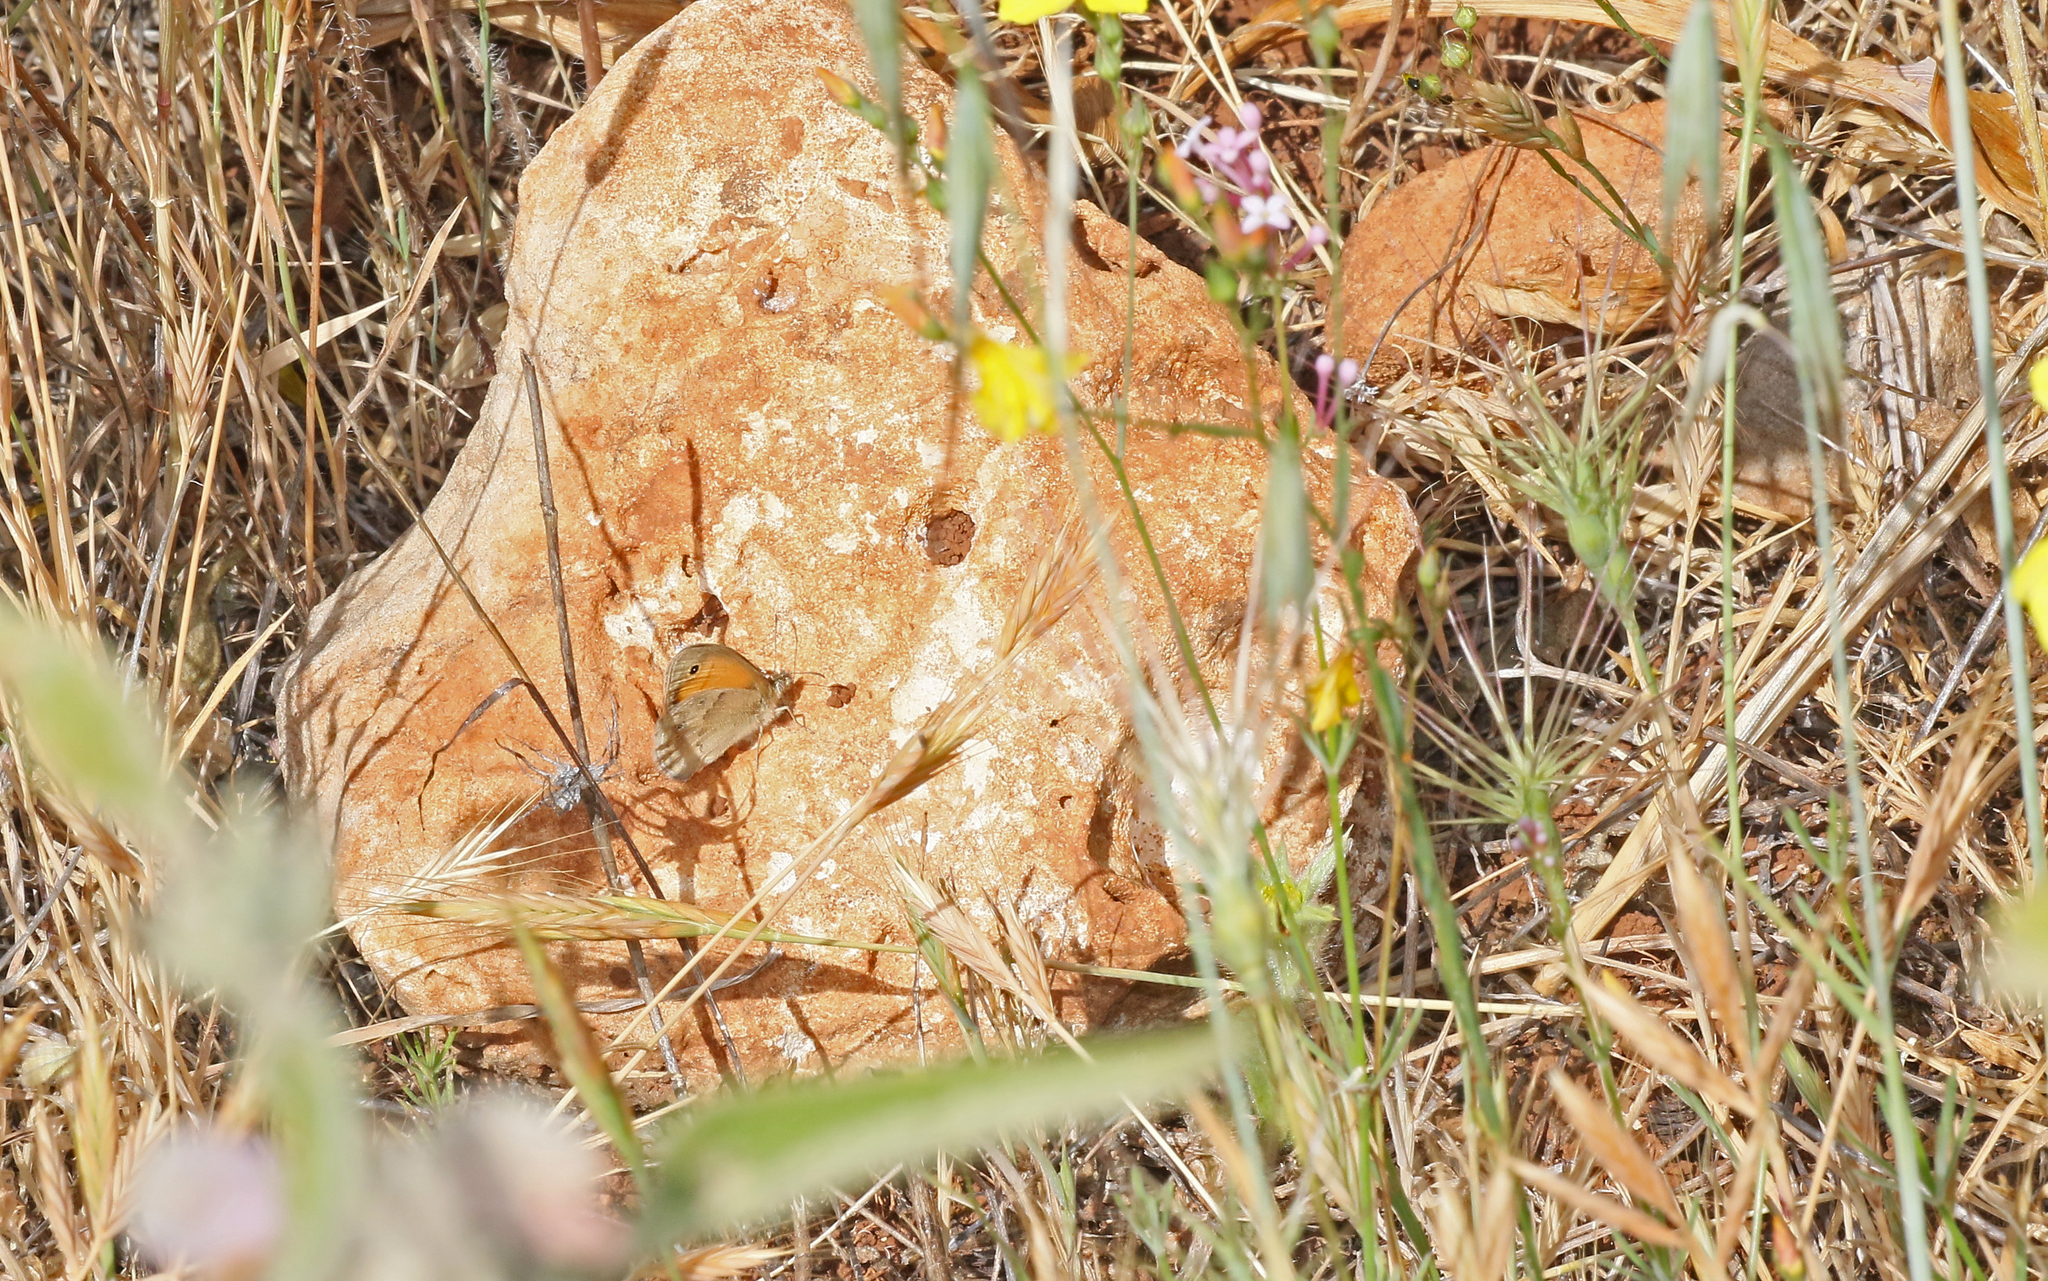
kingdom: Animalia
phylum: Arthropoda
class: Insecta
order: Lepidoptera
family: Nymphalidae
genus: Coenonympha
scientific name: Coenonympha pamphilus
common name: Small heath
